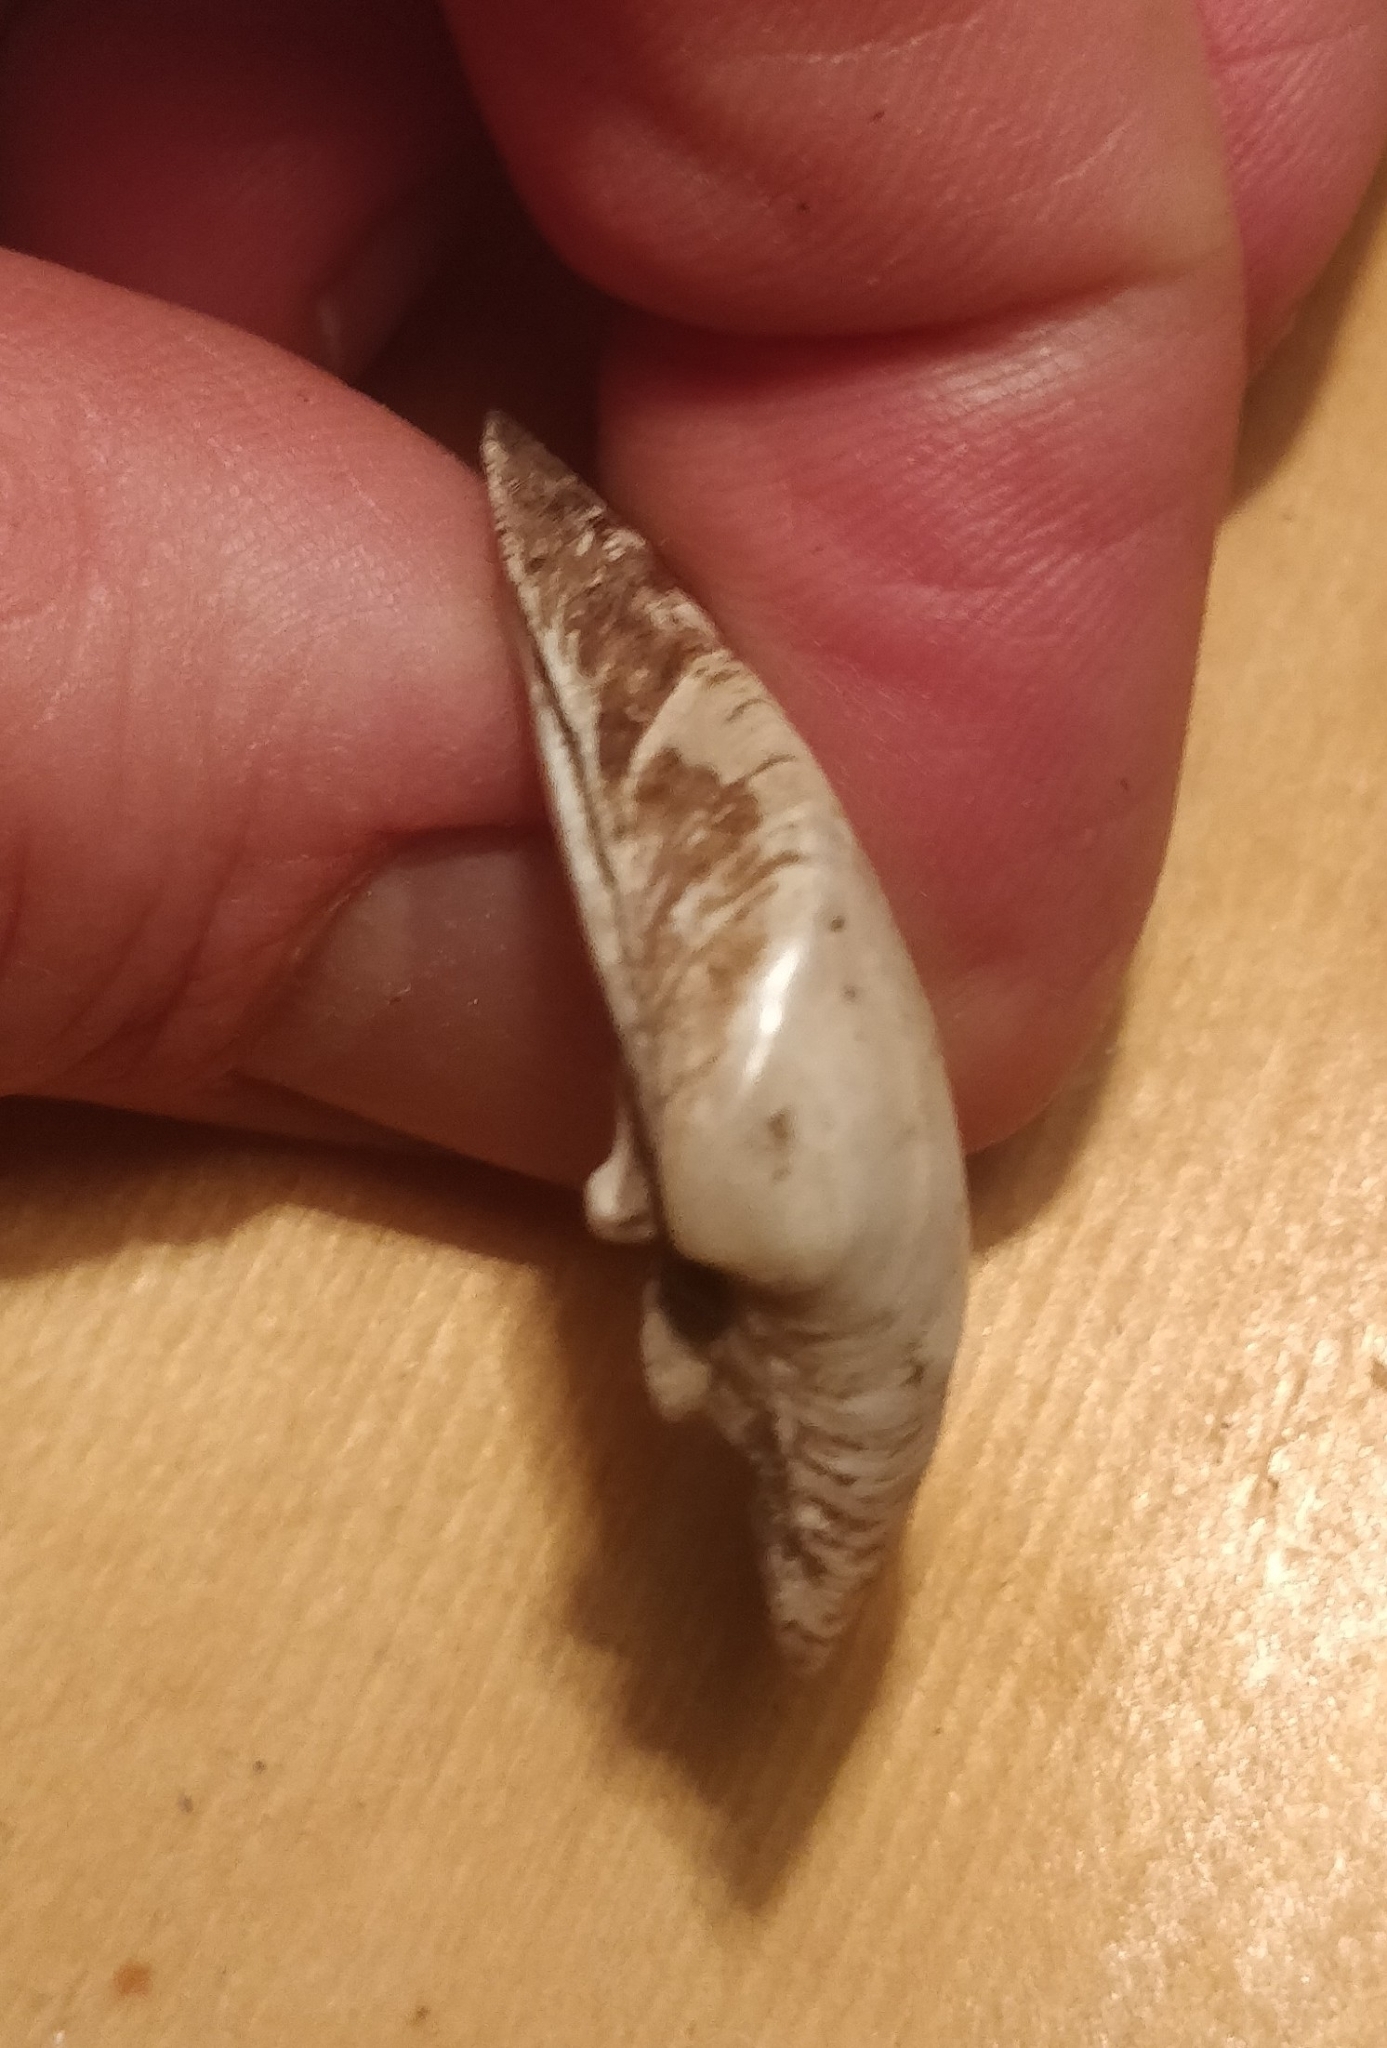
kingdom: Animalia
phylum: Mollusca
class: Bivalvia
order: Unionida
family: Unionidae
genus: Truncilla
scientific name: Truncilla truncata
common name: Deertoe
